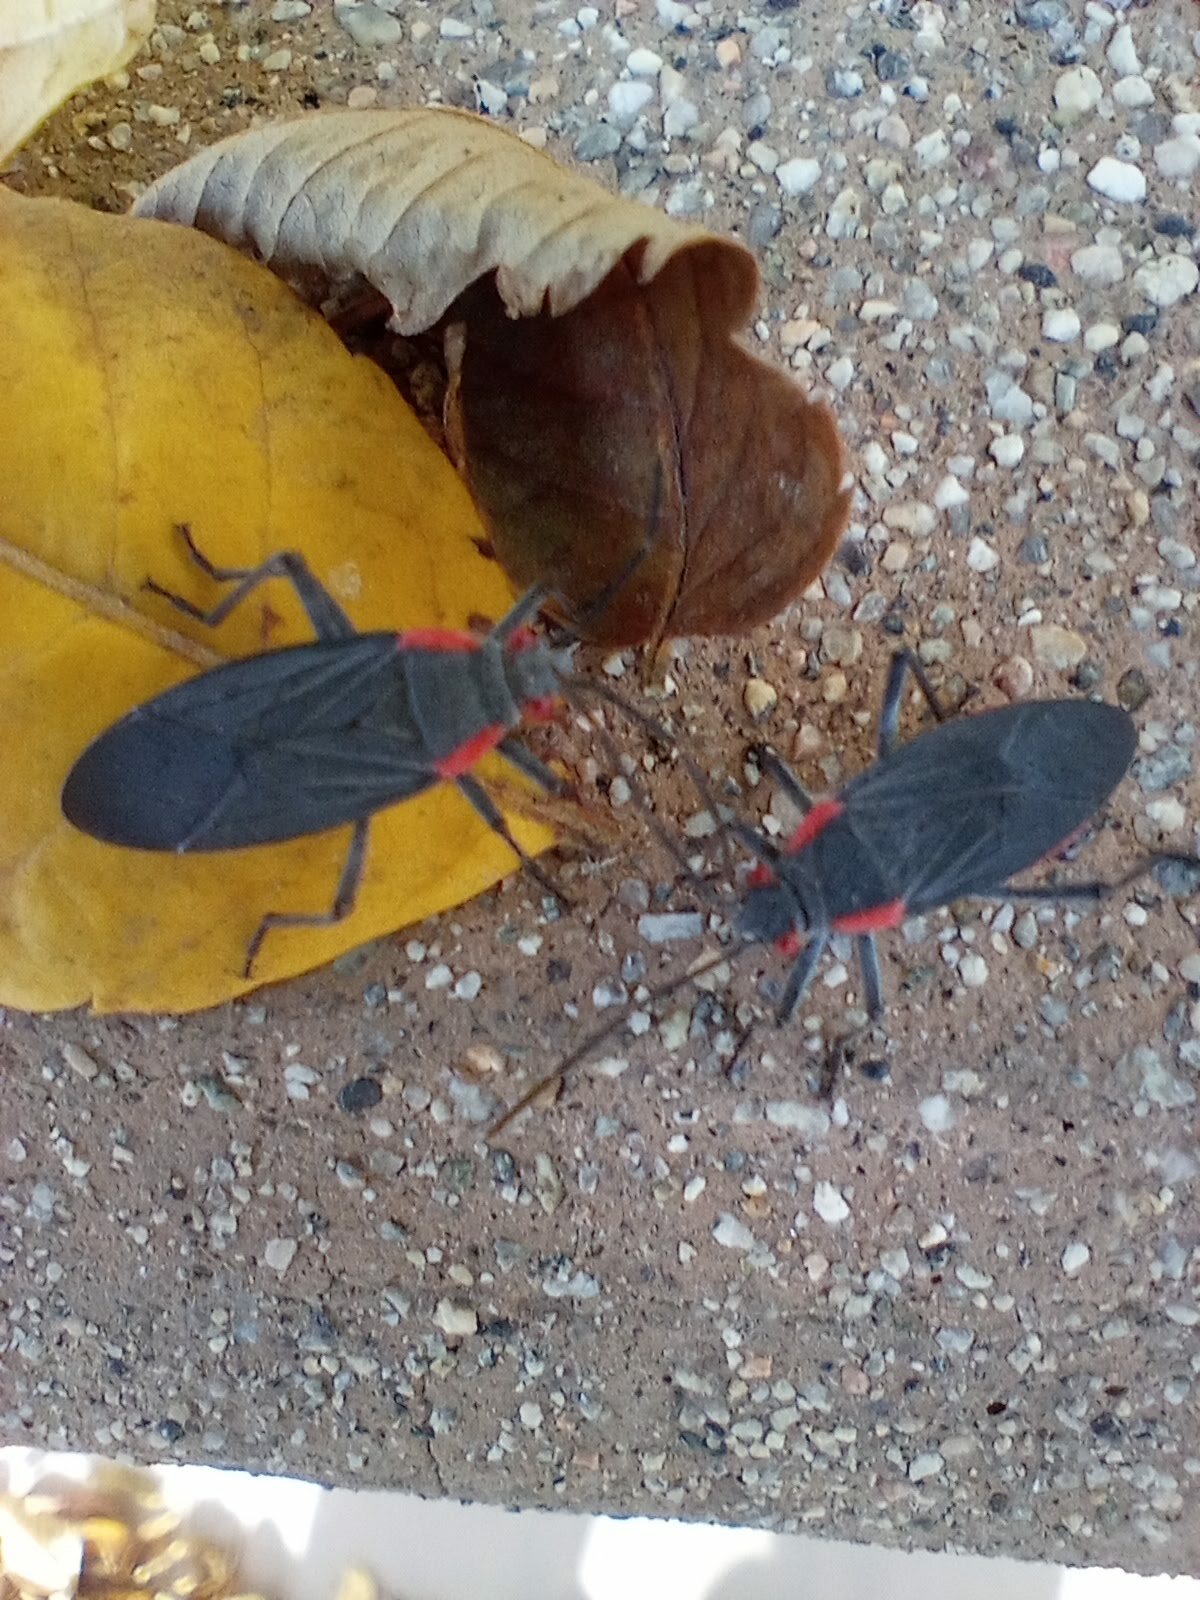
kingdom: Animalia
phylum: Arthropoda
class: Insecta
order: Hemiptera
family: Rhopalidae
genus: Jadera
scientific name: Jadera haematoloma
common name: Red-shouldered bug
